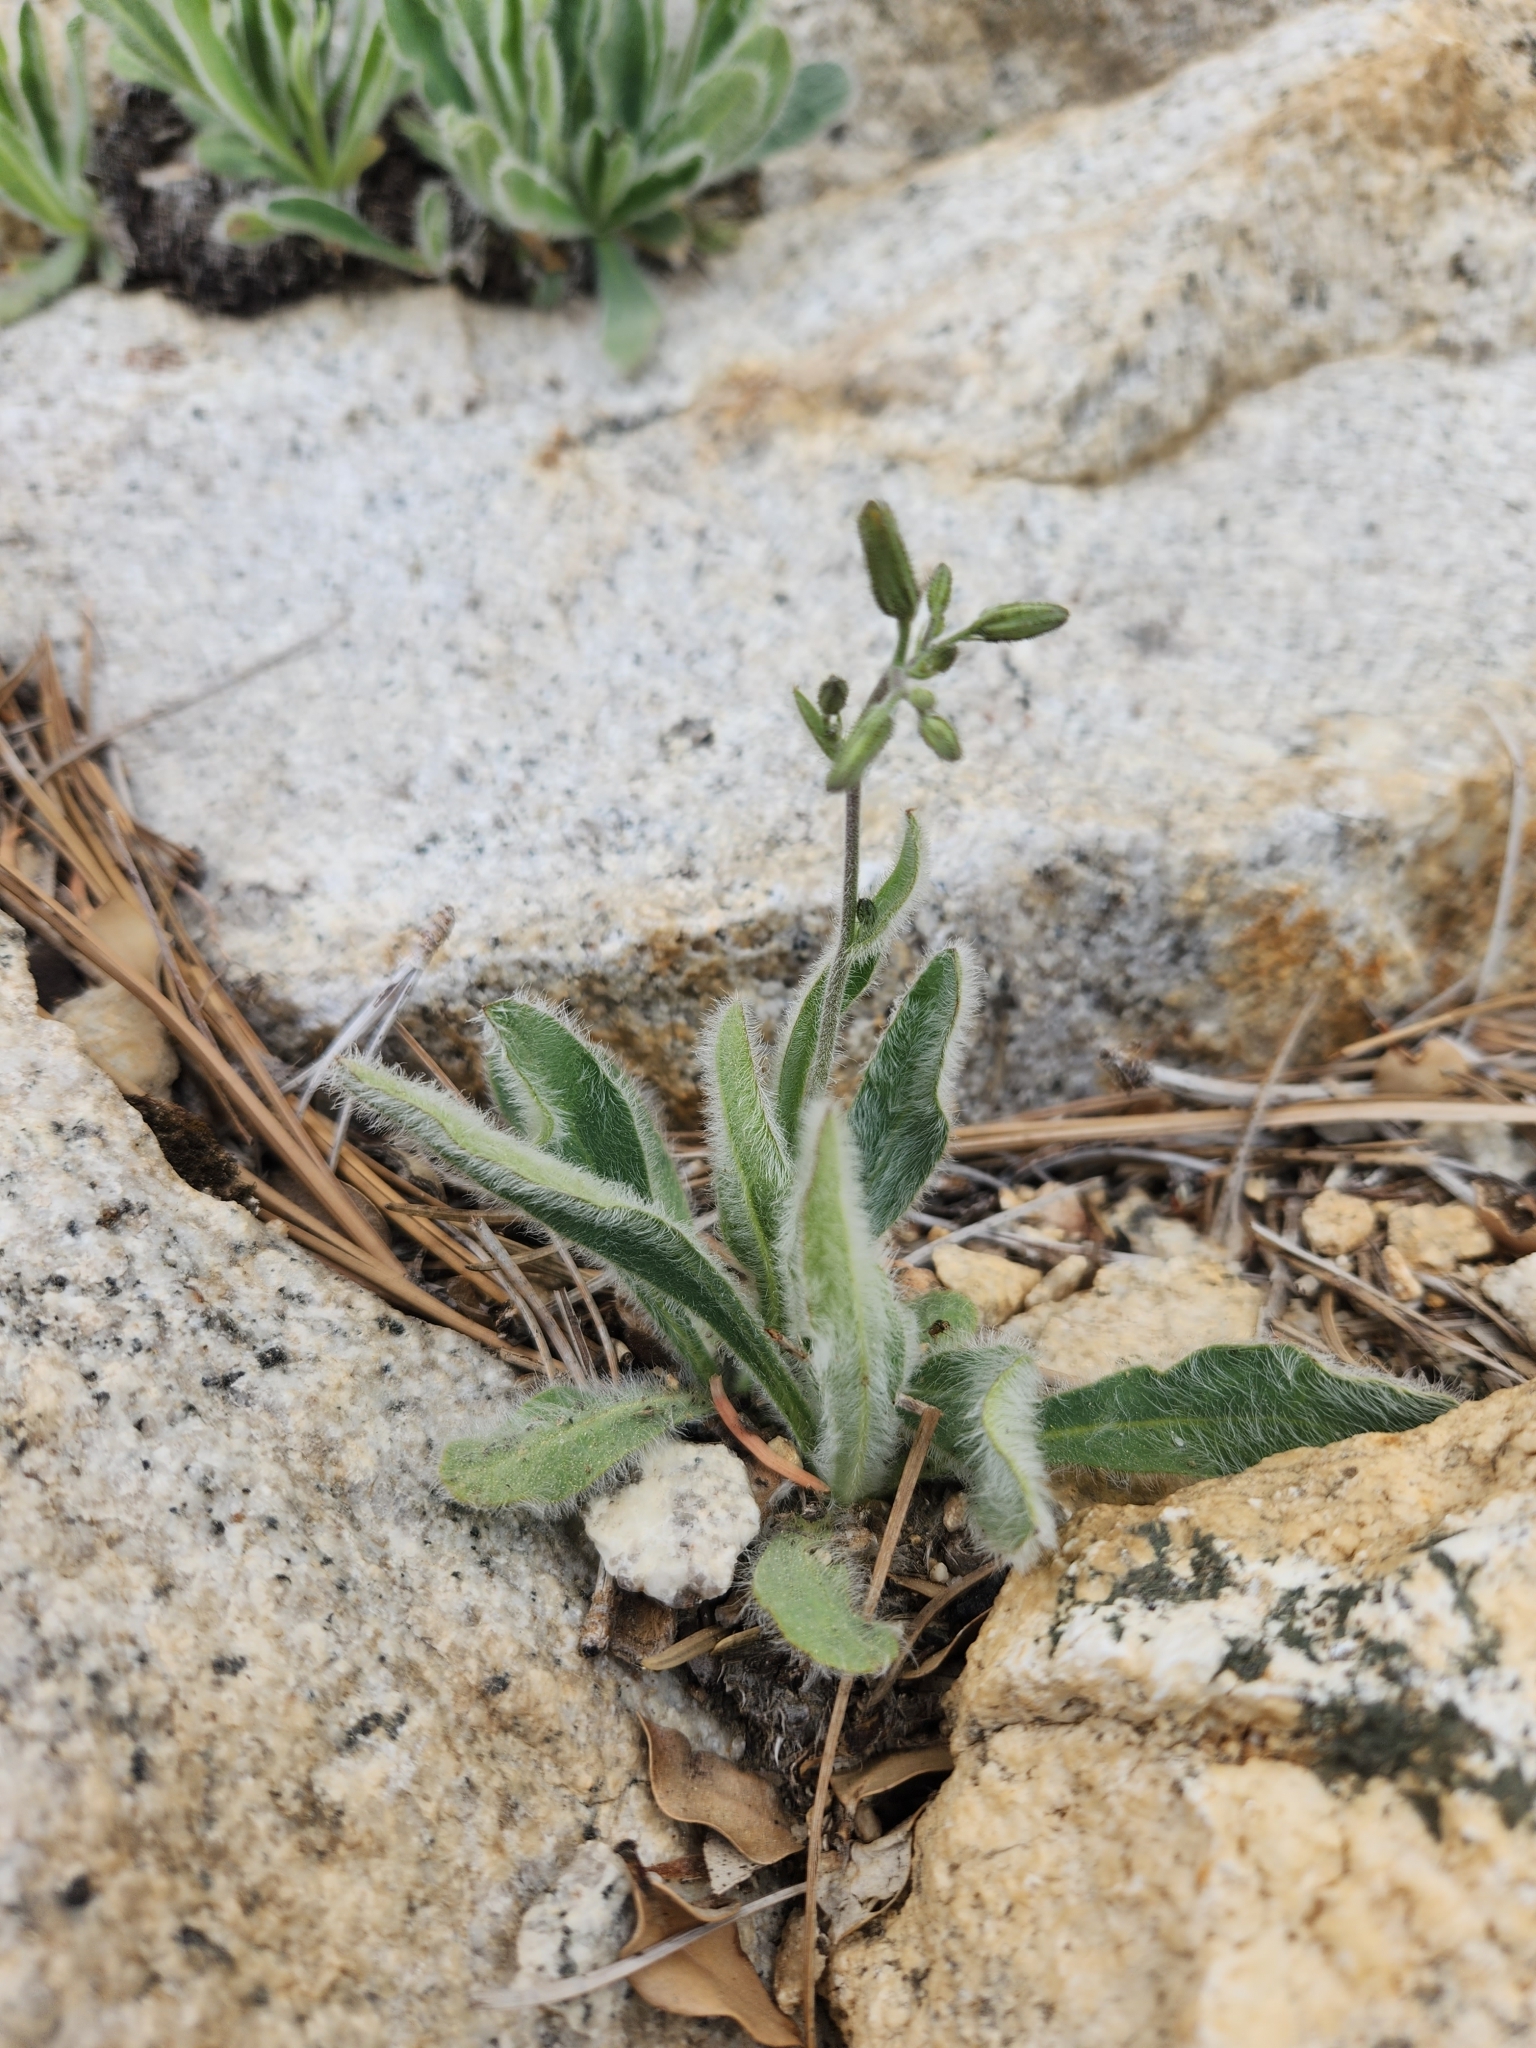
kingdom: Plantae
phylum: Tracheophyta
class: Magnoliopsida
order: Asterales
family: Asteraceae
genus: Hieracium
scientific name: Hieracium horridum
